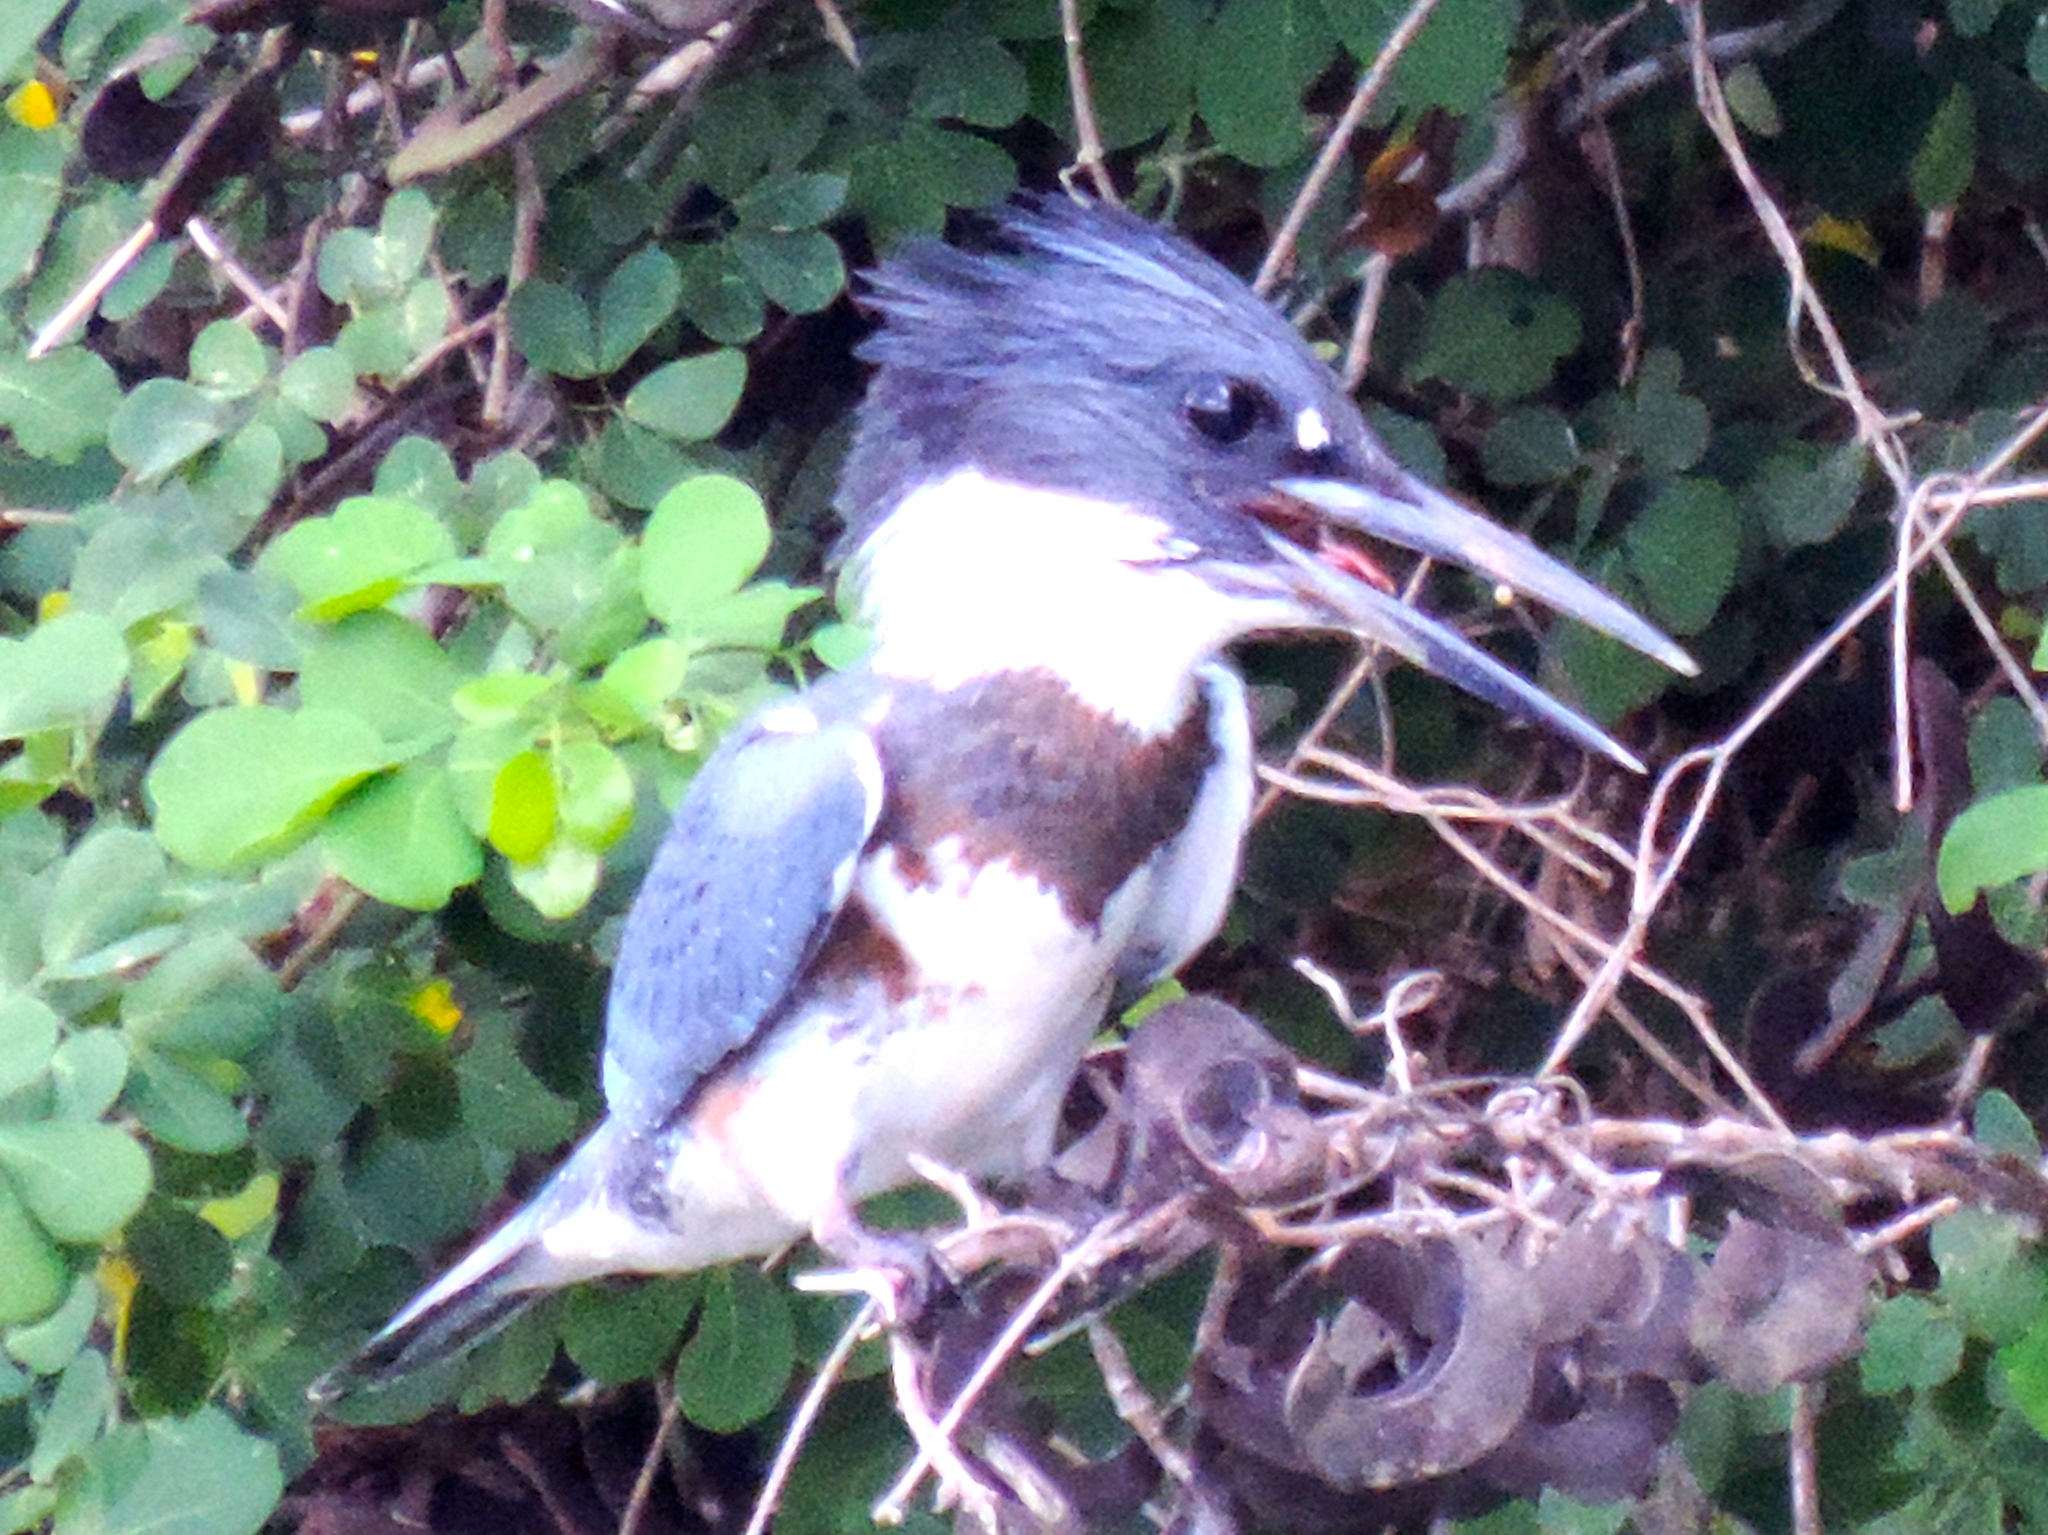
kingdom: Animalia
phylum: Chordata
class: Aves
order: Coraciiformes
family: Alcedinidae
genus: Megaceryle
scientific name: Megaceryle alcyon
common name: Belted kingfisher
